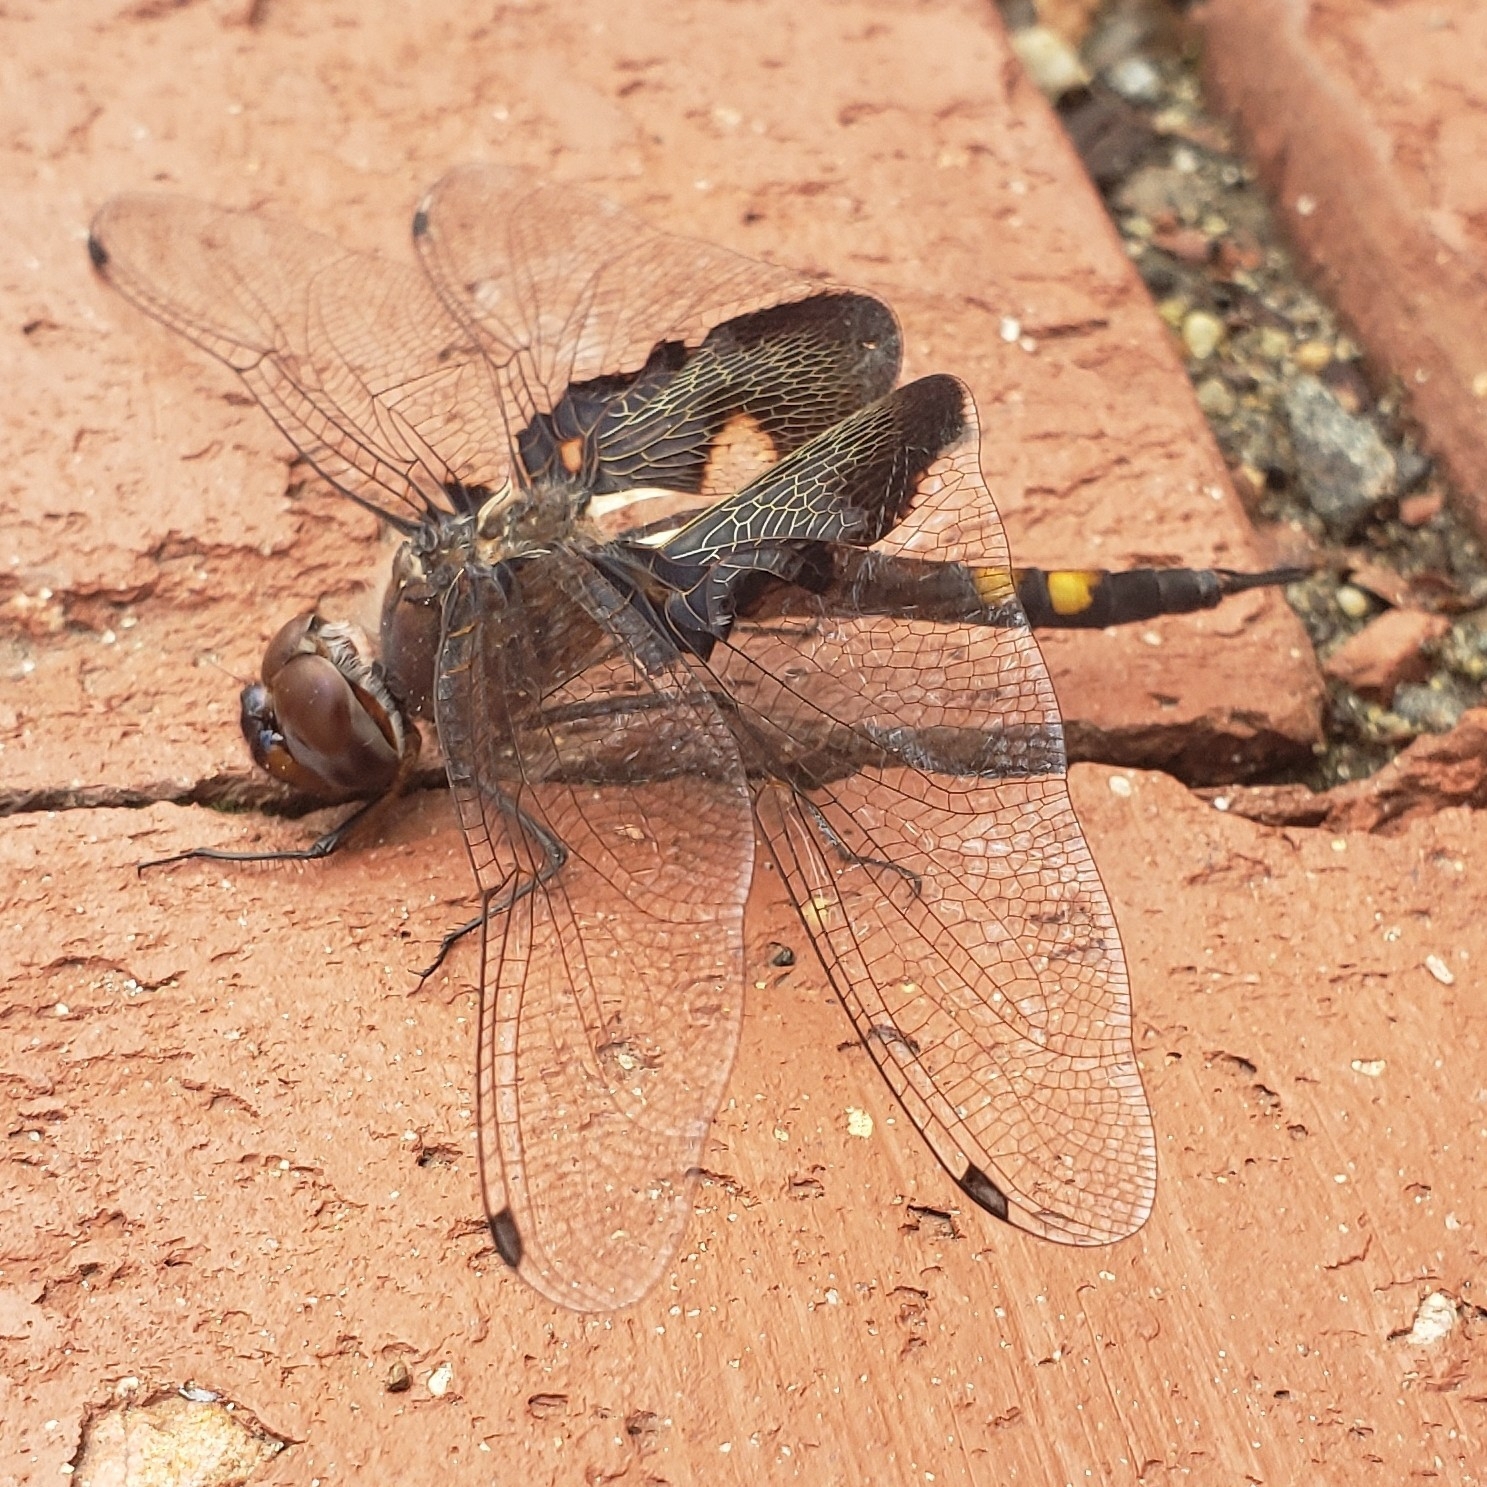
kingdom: Animalia
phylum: Arthropoda
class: Insecta
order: Odonata
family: Libellulidae
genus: Tramea
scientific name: Tramea lacerata
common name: Black saddlebags
